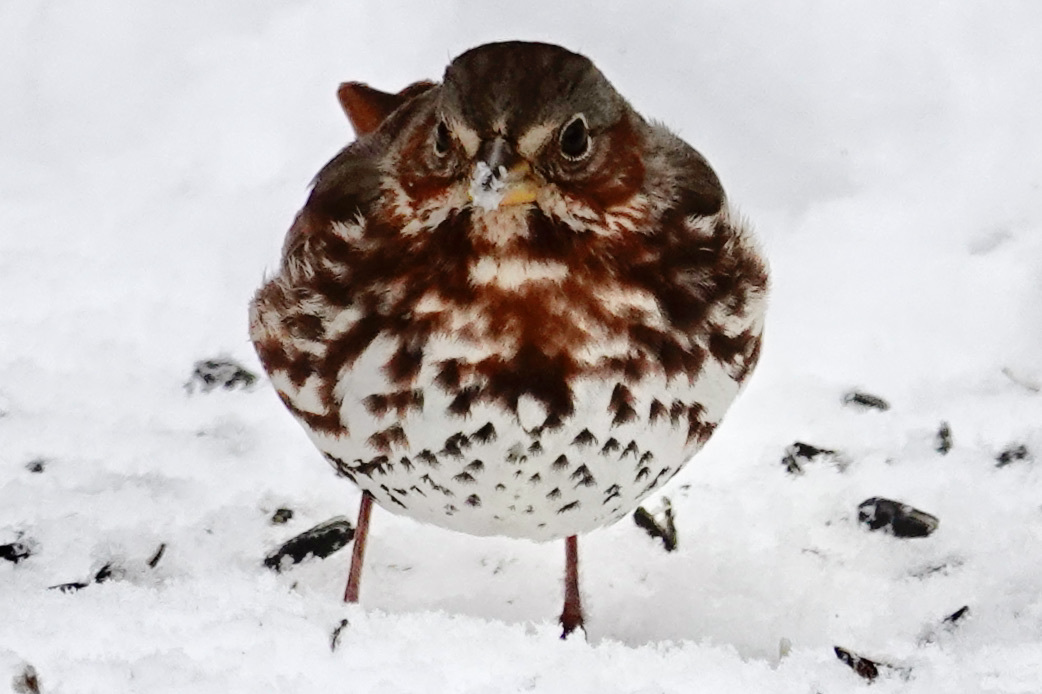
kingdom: Animalia
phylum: Chordata
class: Aves
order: Passeriformes
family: Passerellidae
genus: Passerella
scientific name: Passerella iliaca
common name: Fox sparrow
